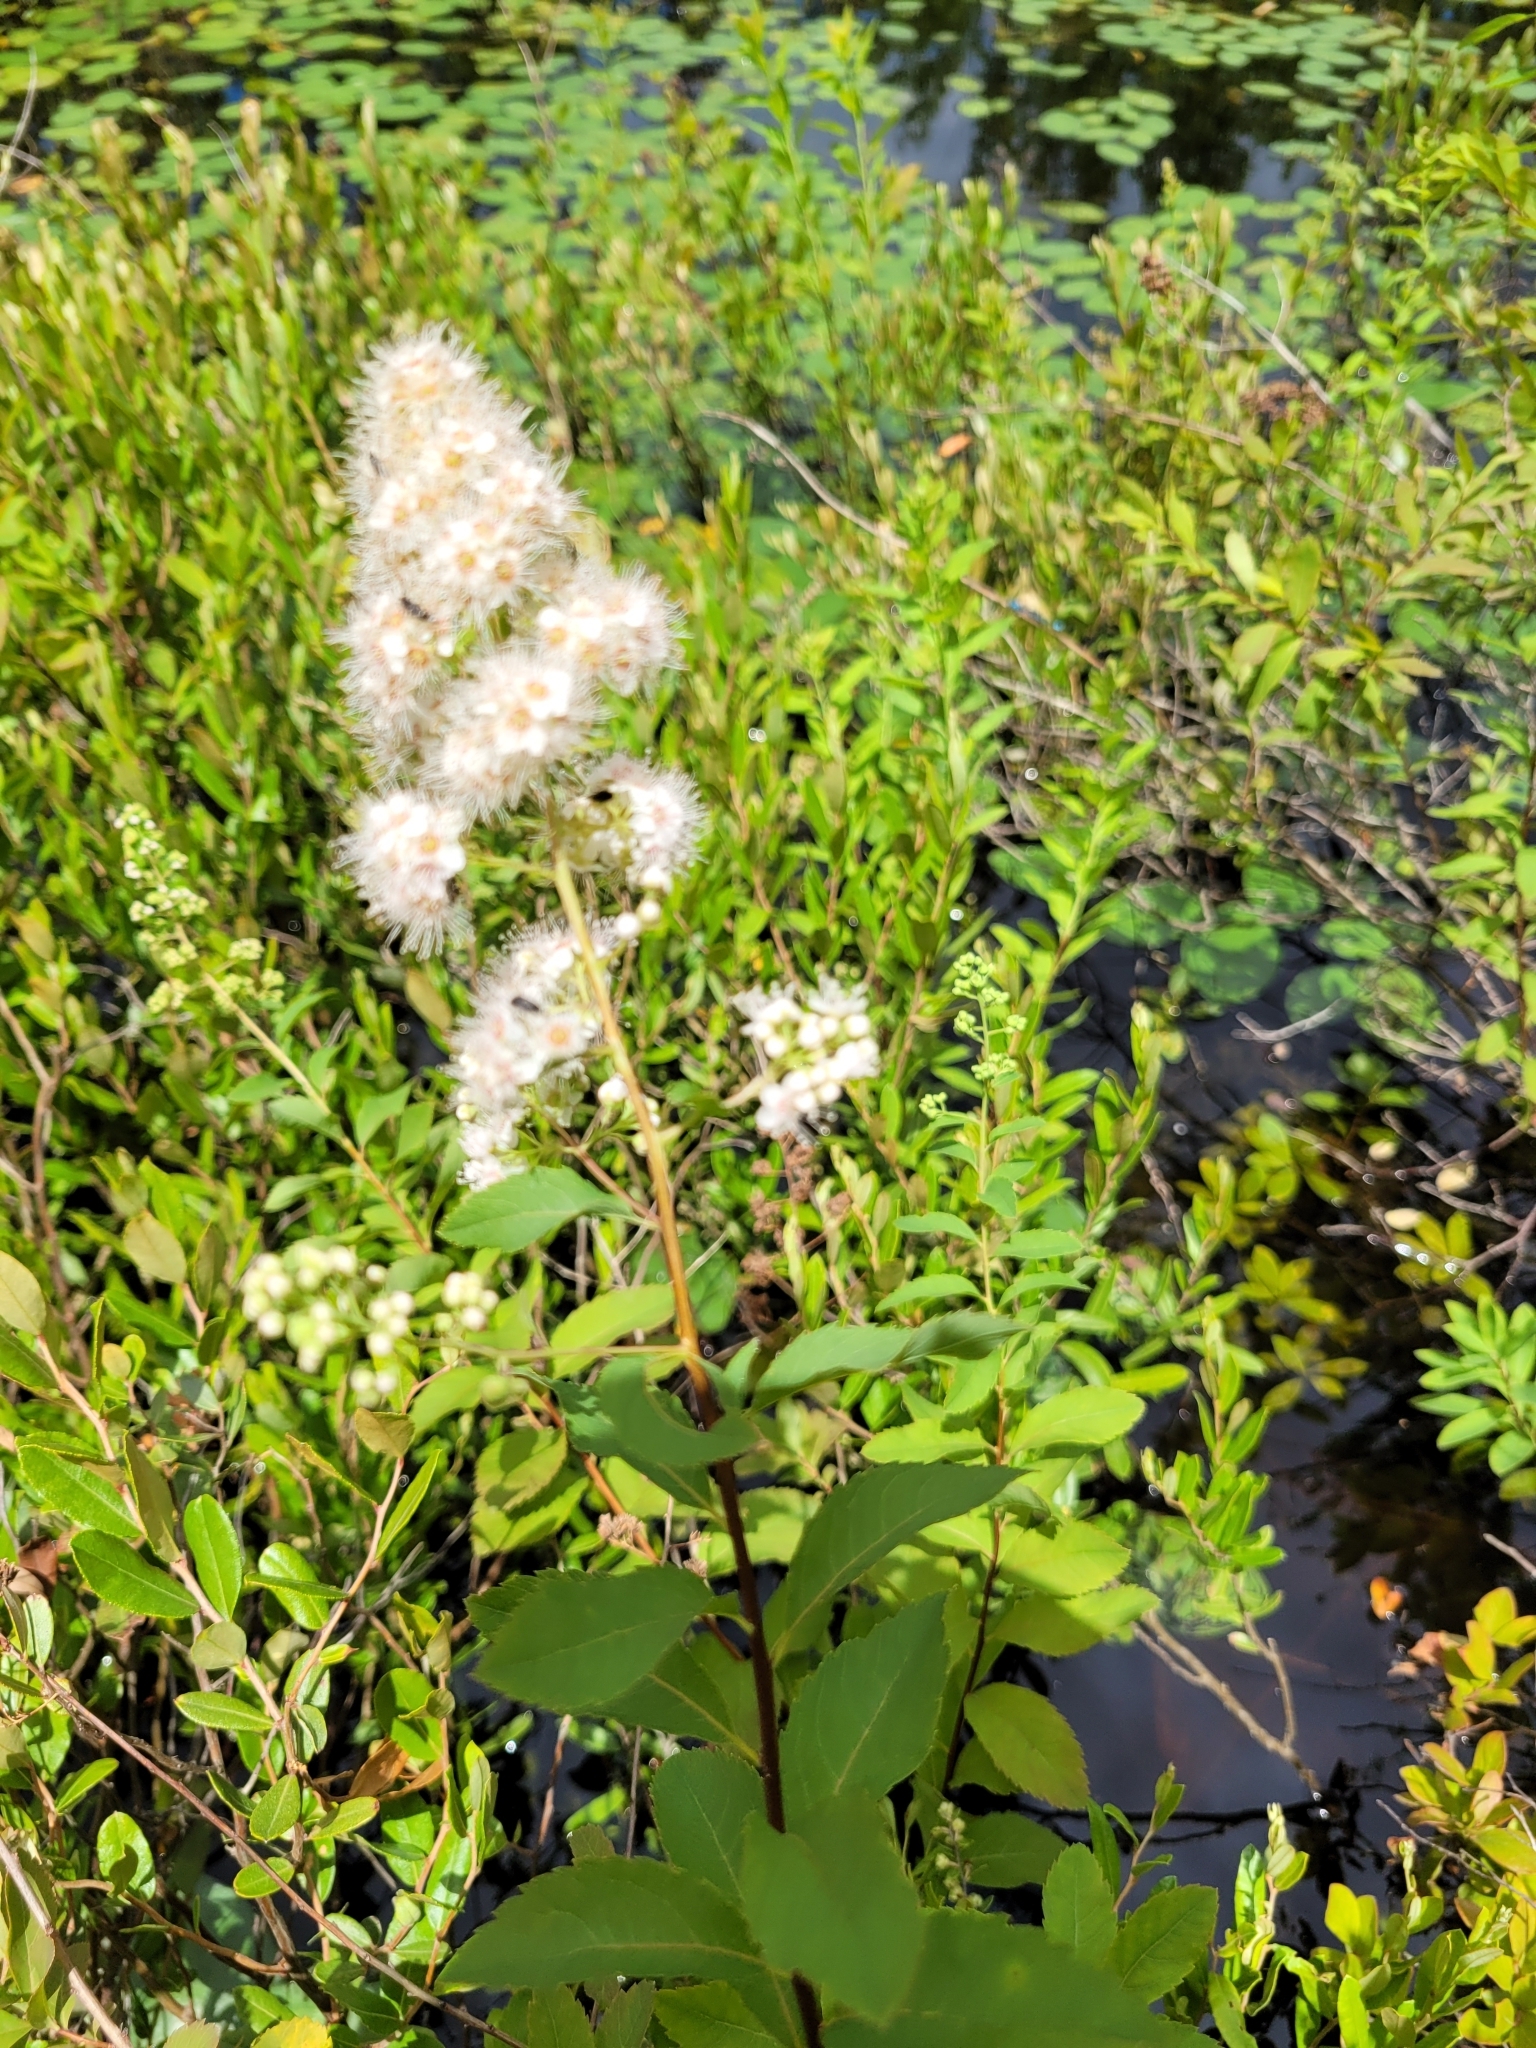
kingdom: Plantae
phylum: Tracheophyta
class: Magnoliopsida
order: Rosales
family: Rosaceae
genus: Spiraea
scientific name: Spiraea alba
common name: Pale bridewort
